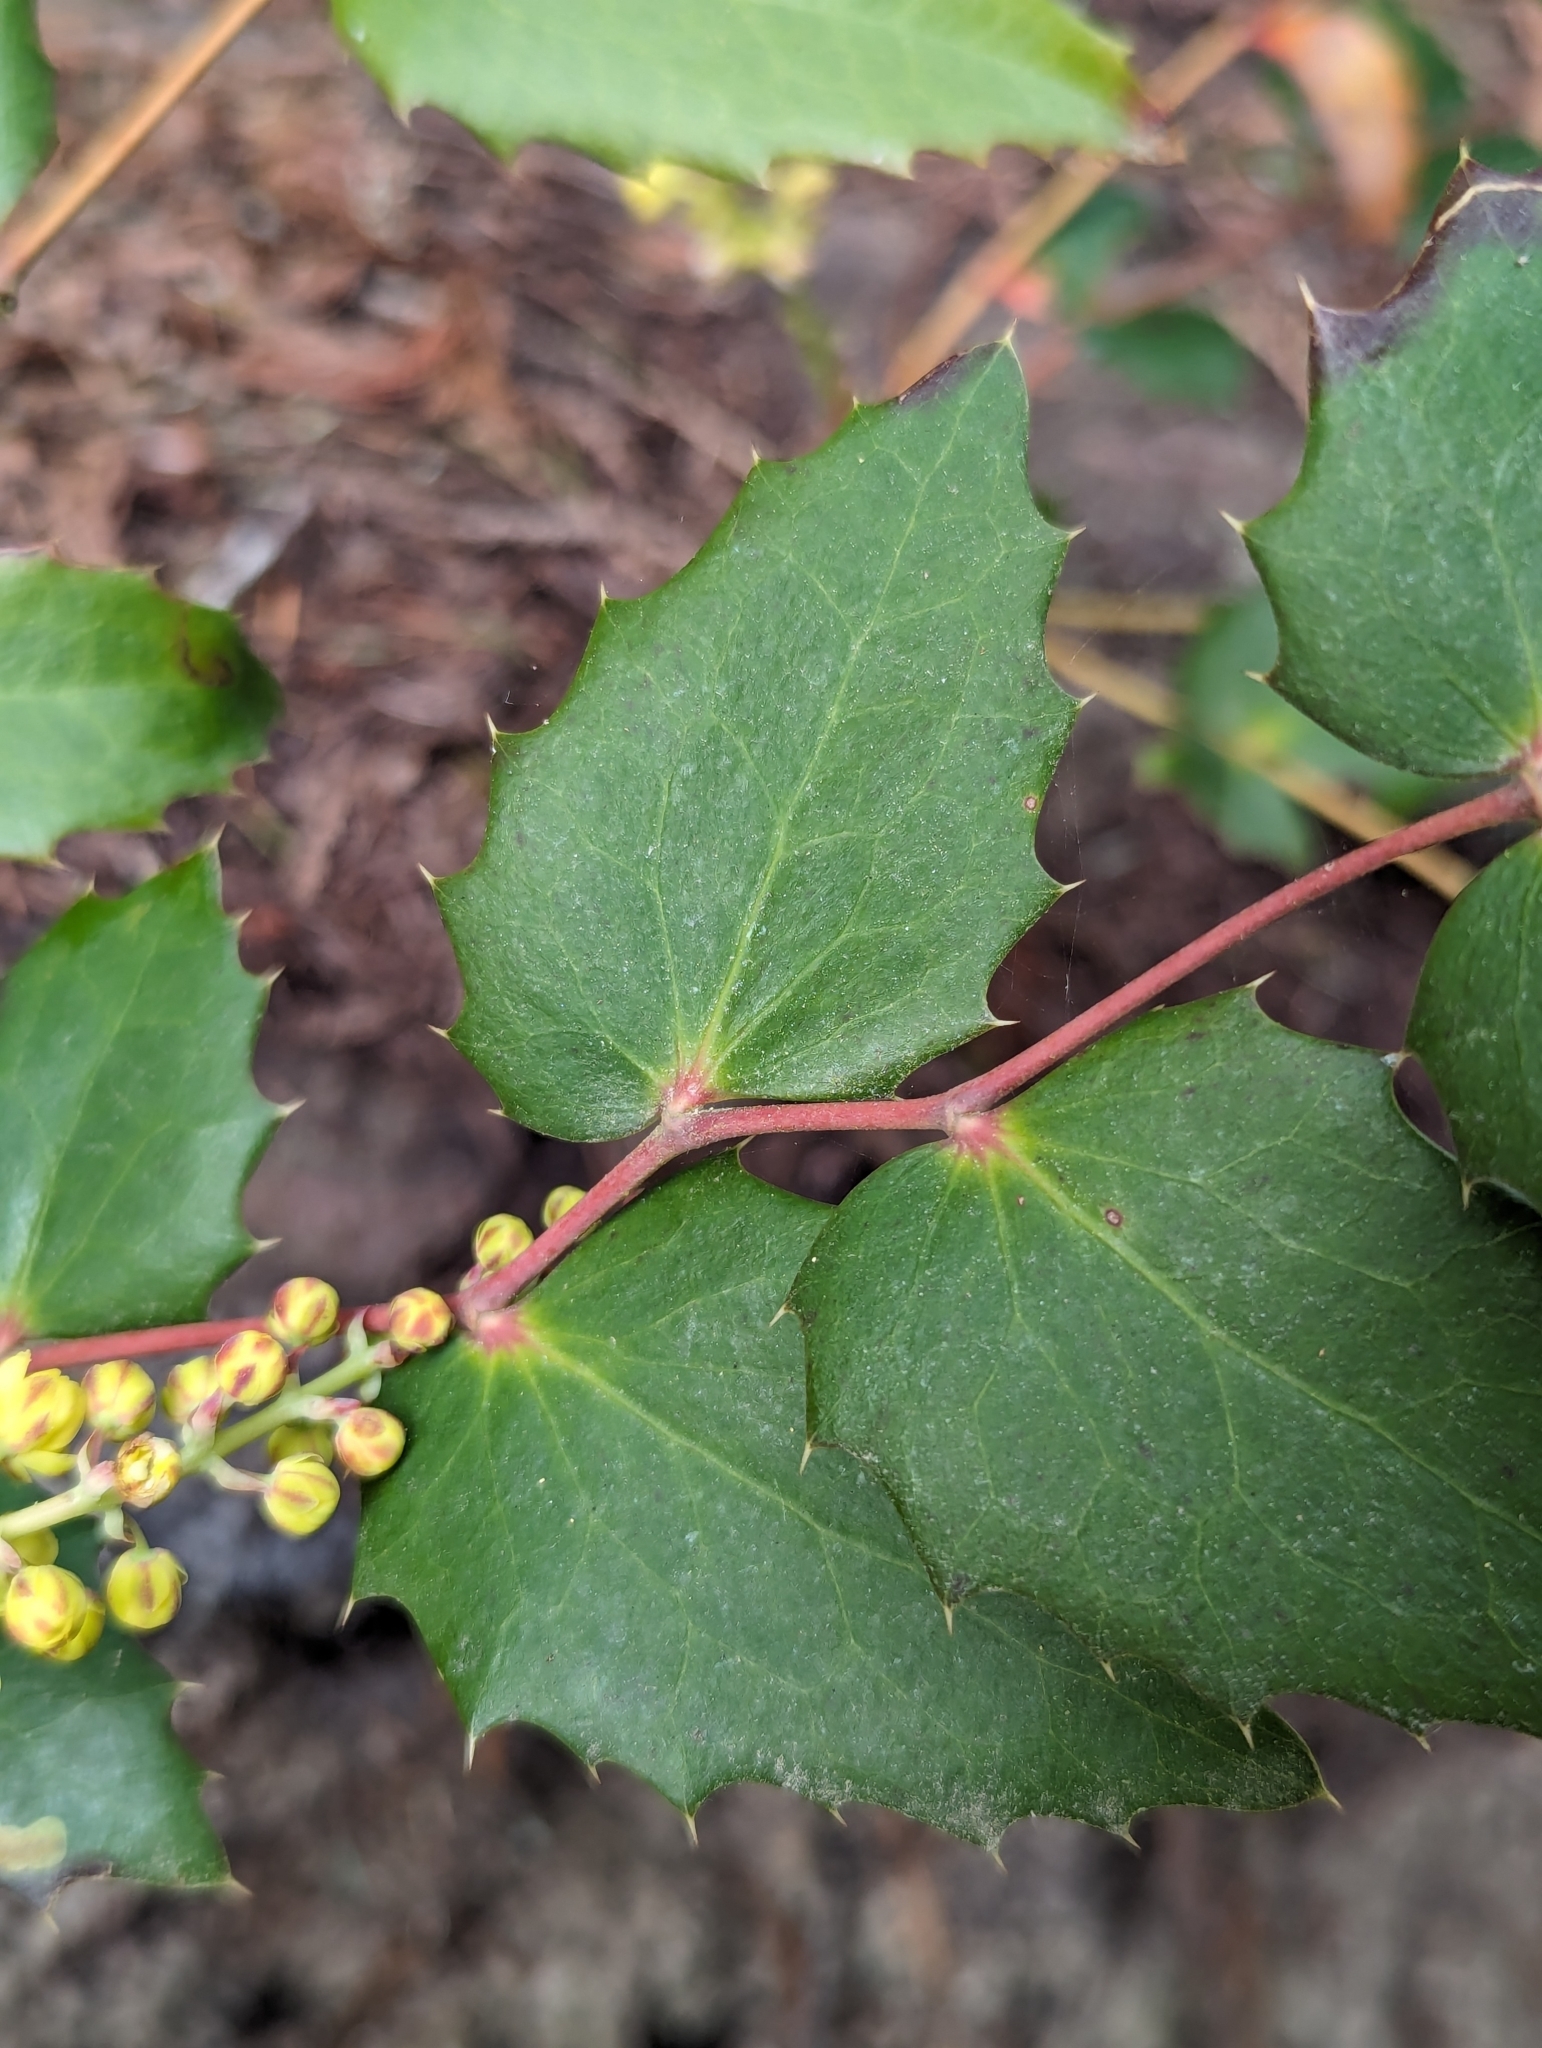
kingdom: Plantae
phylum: Tracheophyta
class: Magnoliopsida
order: Ranunculales
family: Berberidaceae
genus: Mahonia
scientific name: Mahonia nervosa
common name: Cascade oregon-grape
